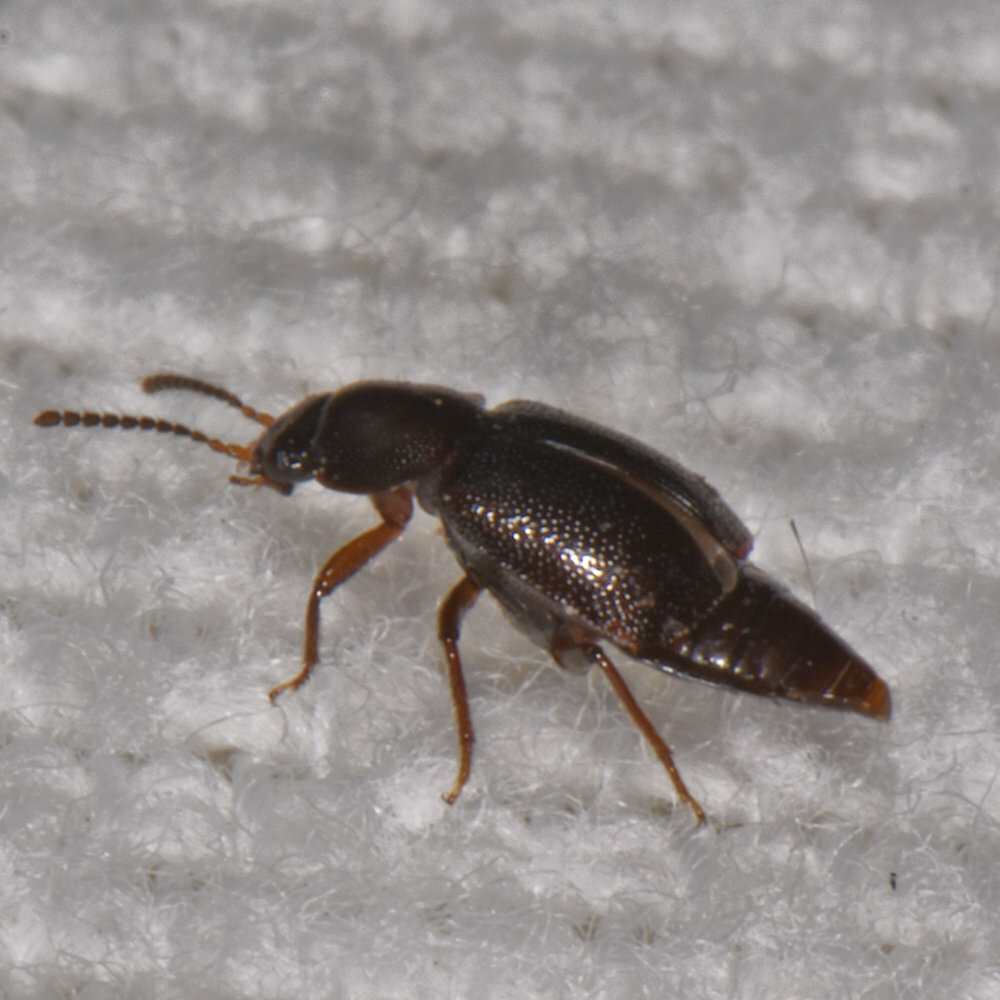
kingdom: Animalia
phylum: Arthropoda
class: Insecta
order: Coleoptera
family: Staphylinidae
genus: Olophrum
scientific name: Olophrum obtectum
